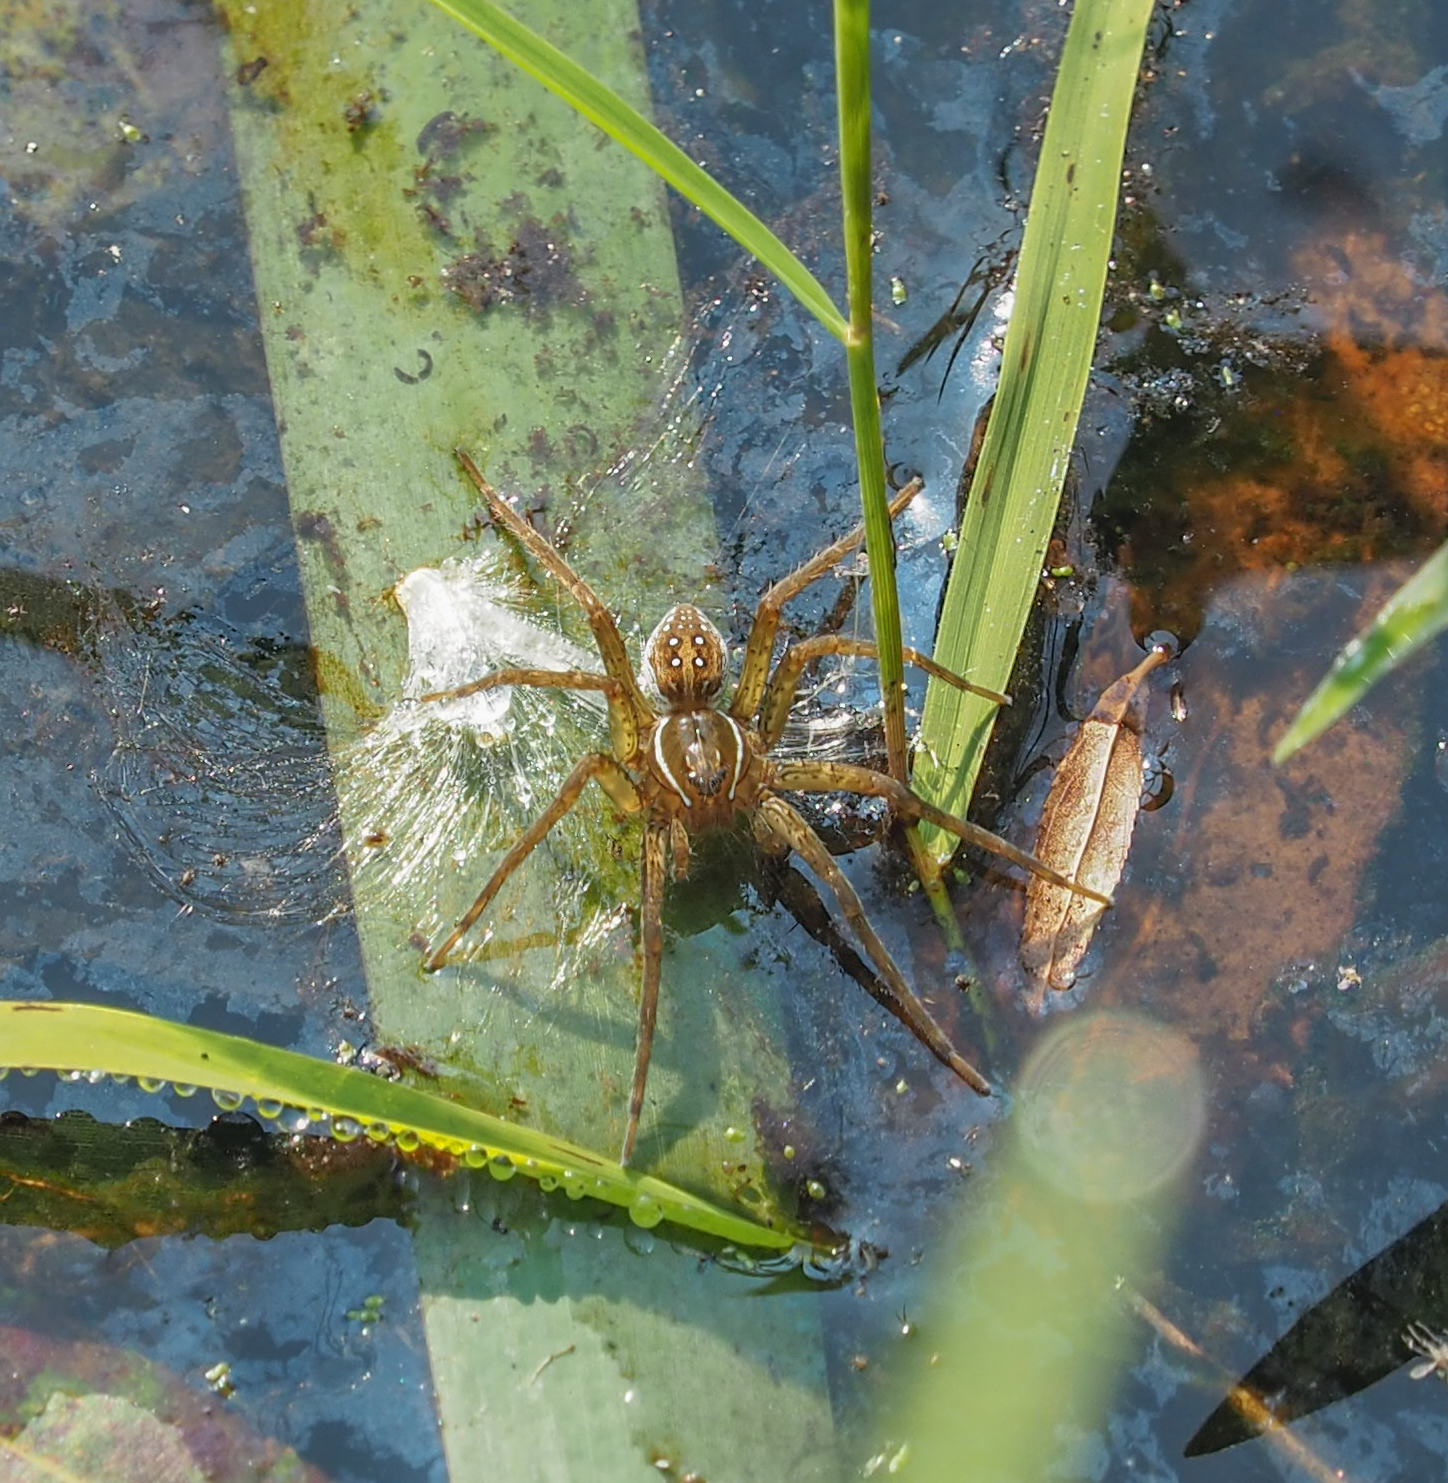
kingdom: Animalia
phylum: Arthropoda
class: Arachnida
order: Araneae
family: Pisauridae
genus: Dolomedes
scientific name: Dolomedes triton
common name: Six-spotted fishing spider
